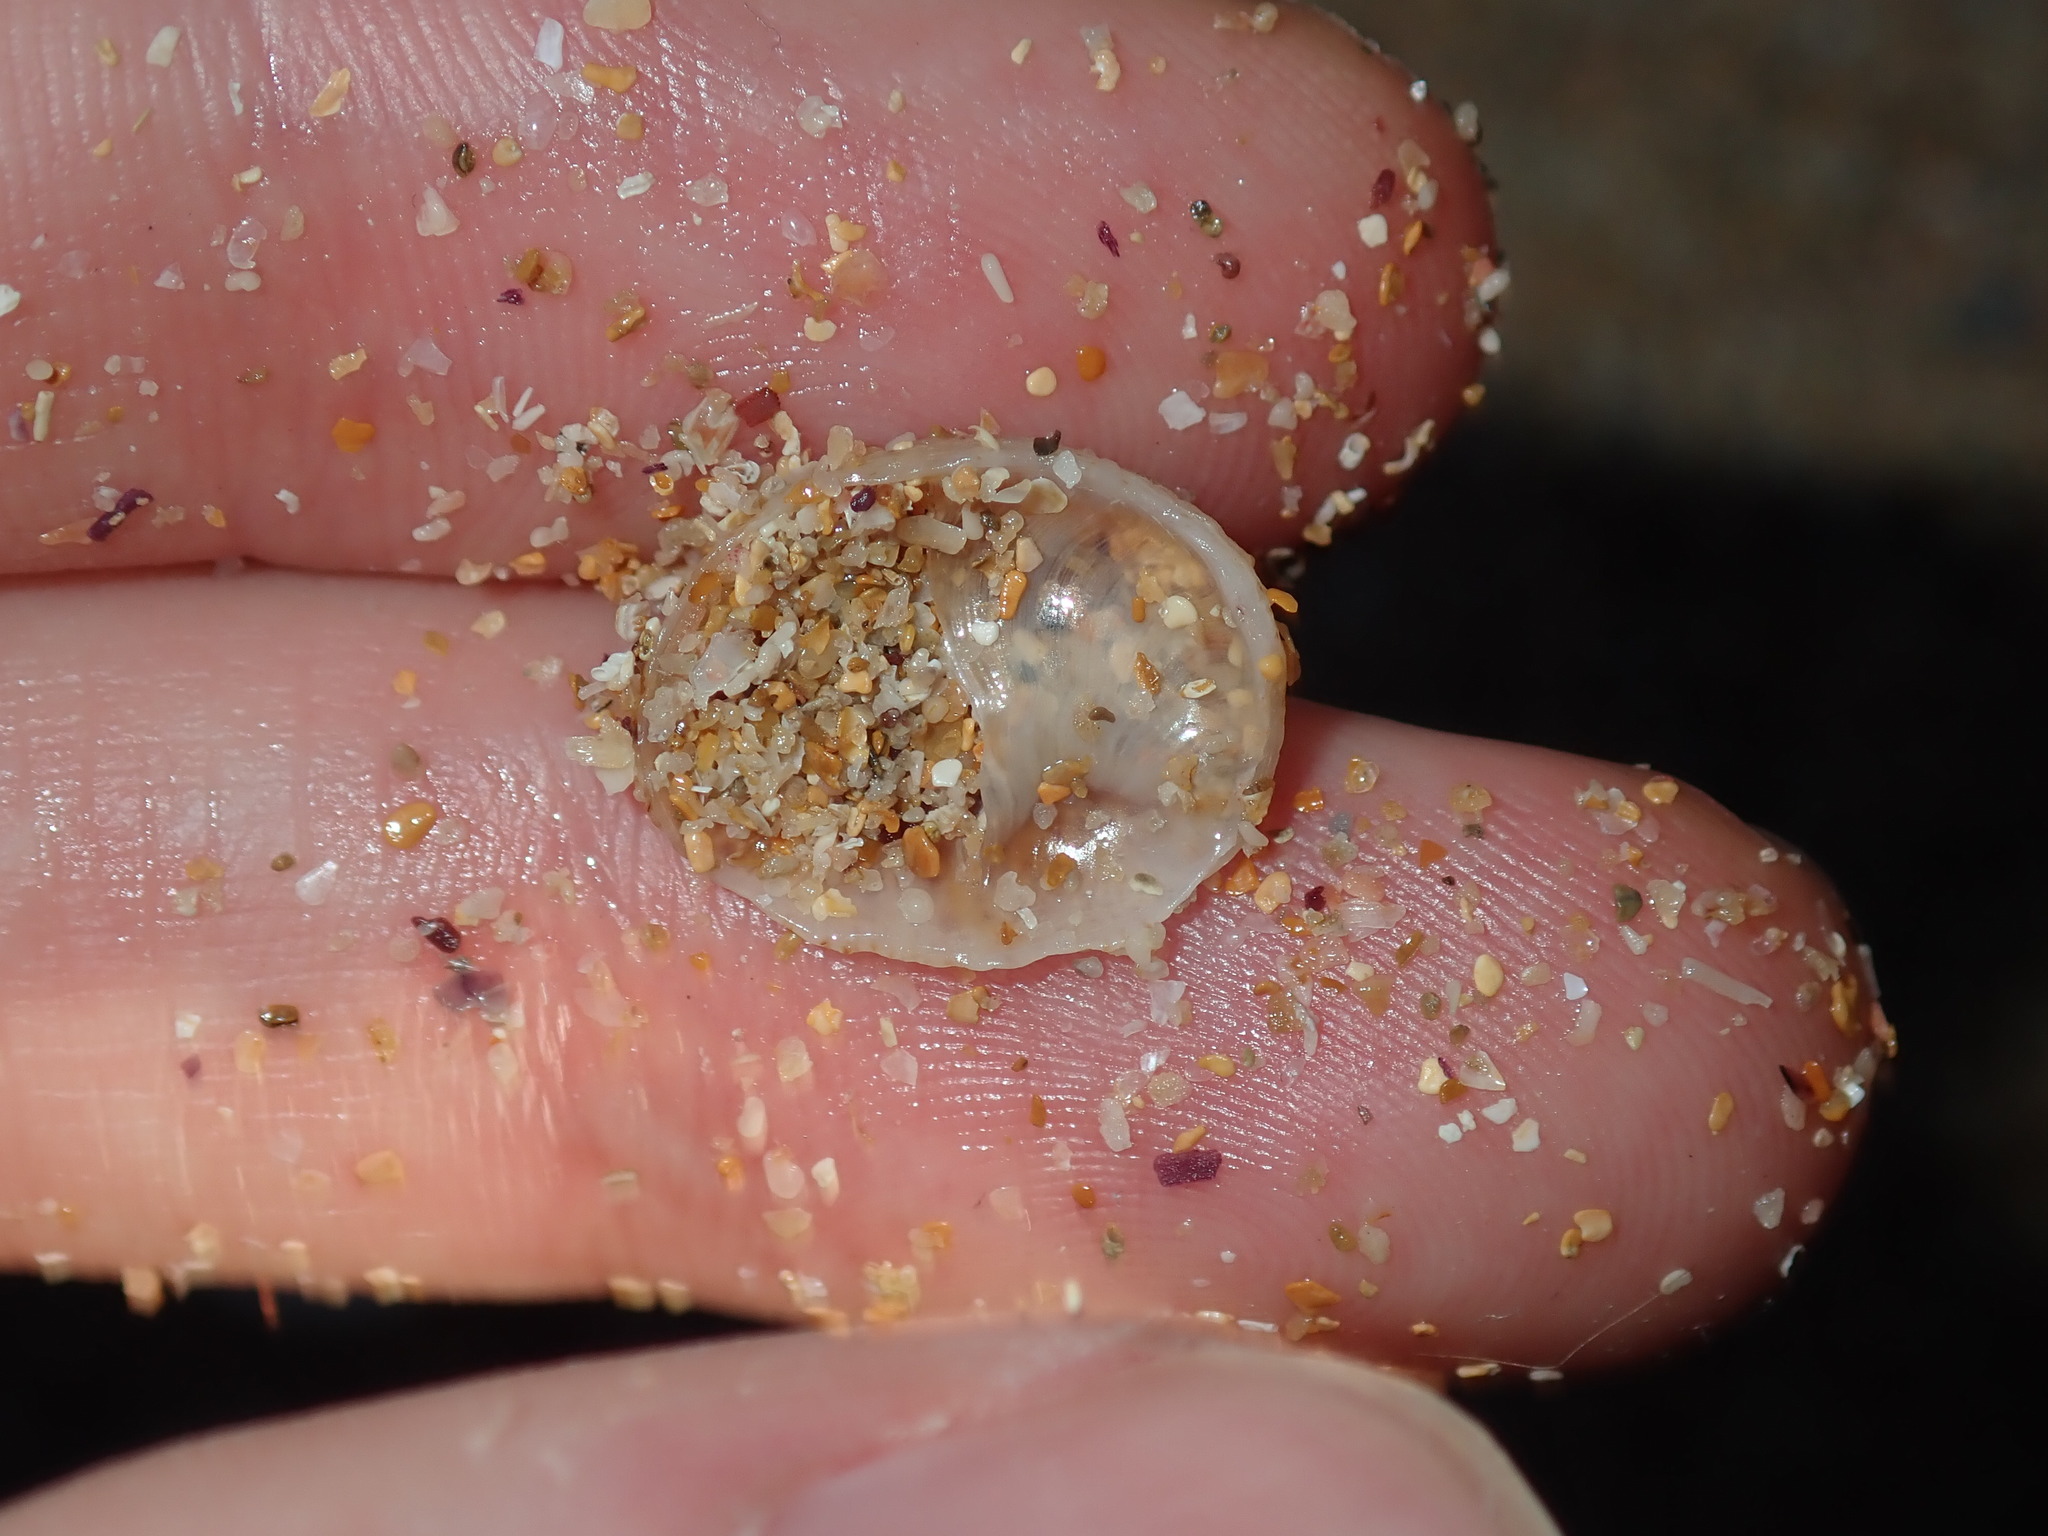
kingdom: Animalia
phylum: Mollusca
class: Gastropoda
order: Littorinimorpha
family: Calyptraeidae
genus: Bostrycapulus
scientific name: Bostrycapulus pritzkeri
